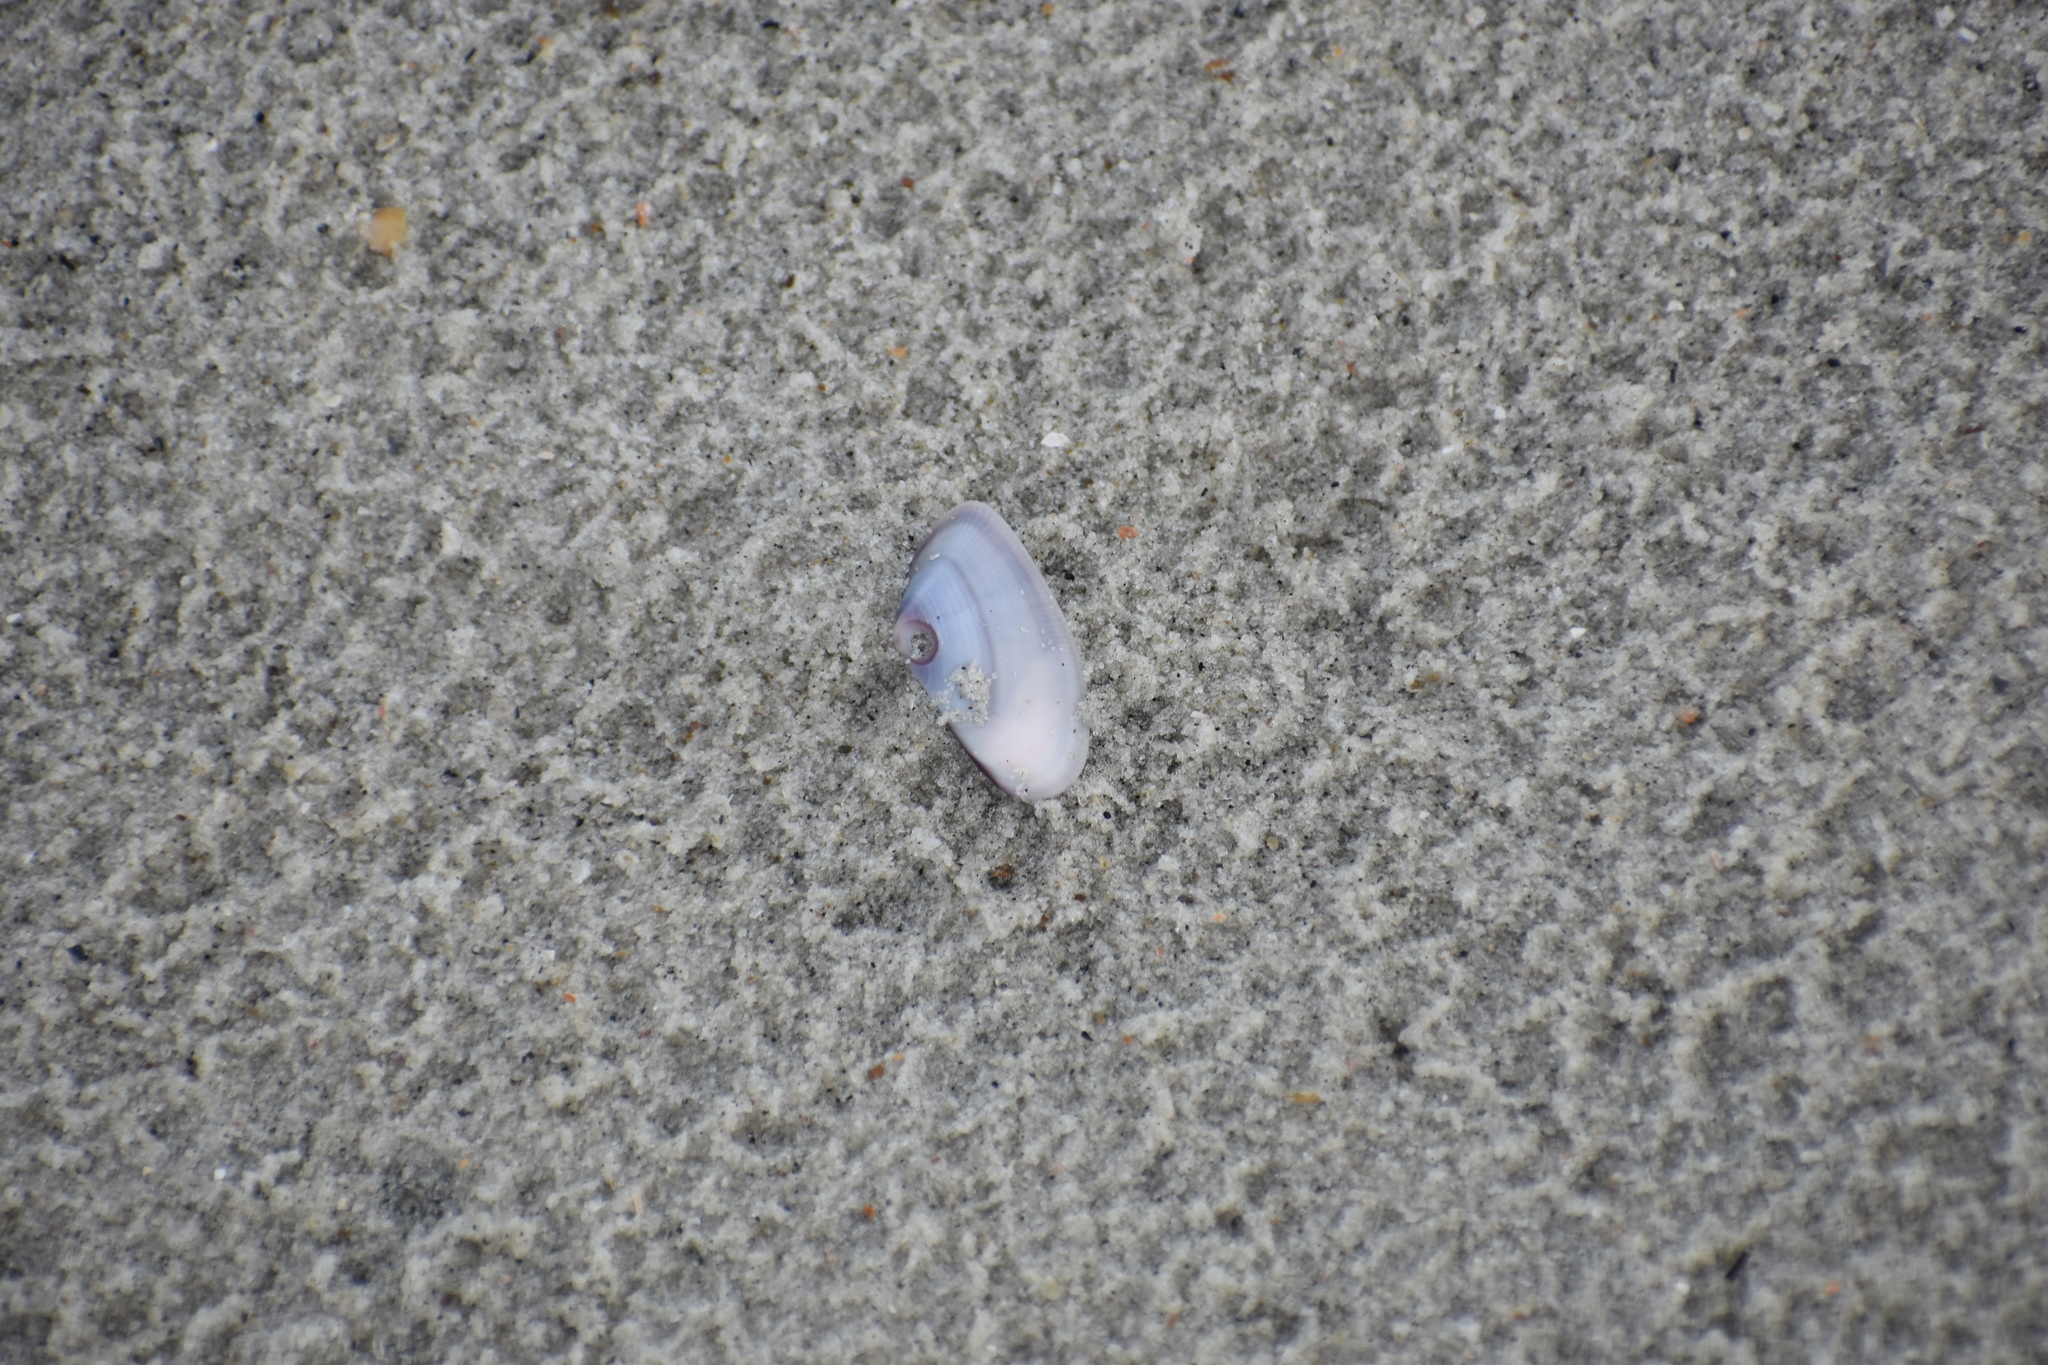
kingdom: Animalia
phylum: Mollusca
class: Bivalvia
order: Cardiida
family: Donacidae
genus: Donax
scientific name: Donax variabilis
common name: Butterfly shell
